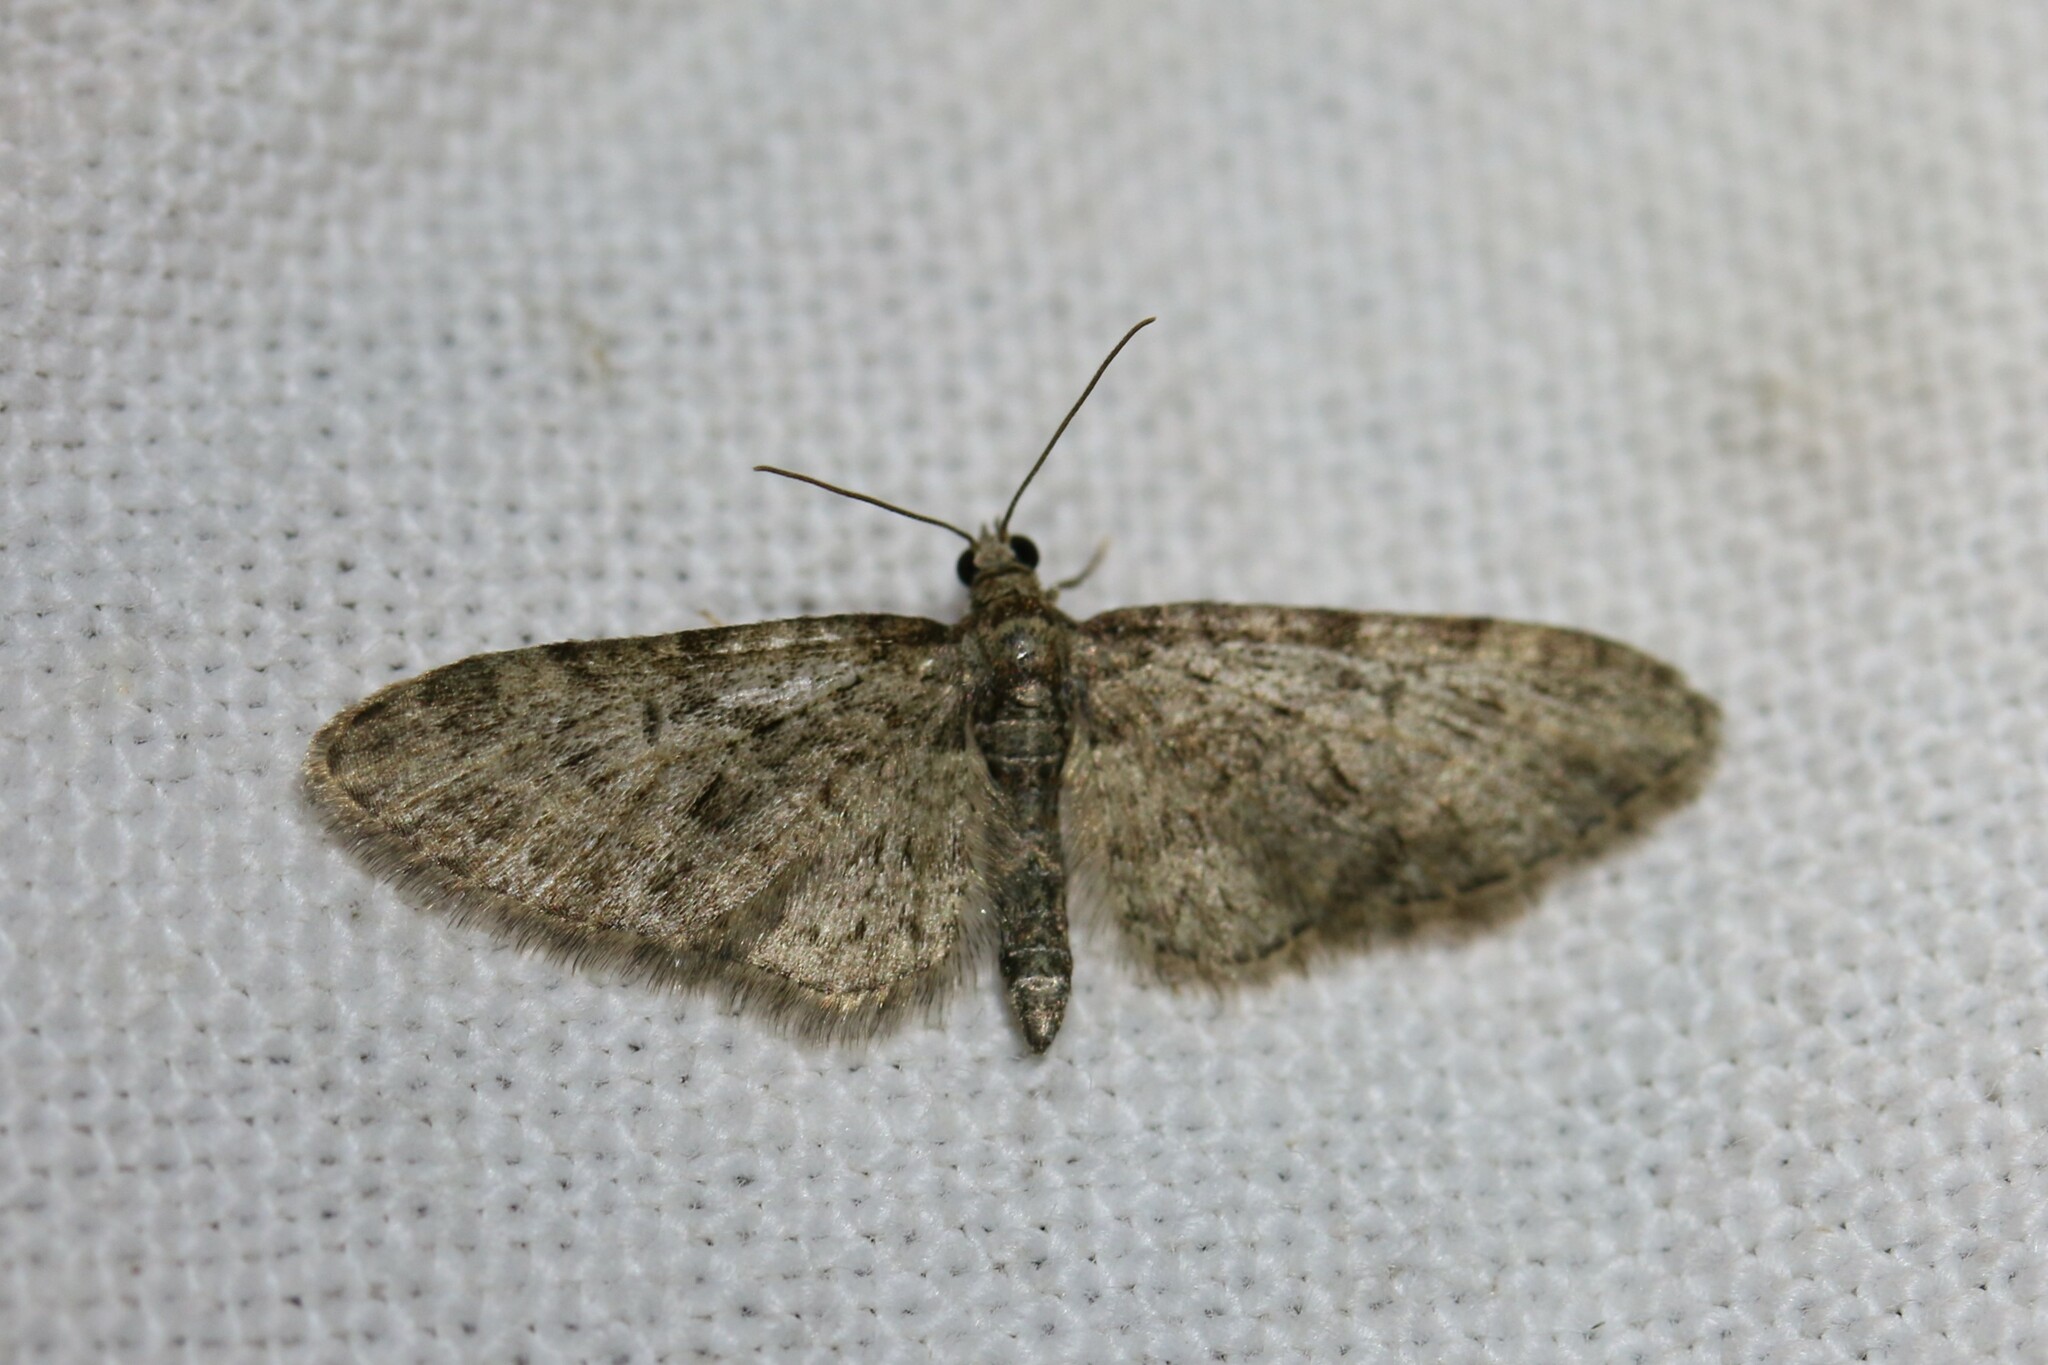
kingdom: Animalia
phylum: Arthropoda
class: Insecta
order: Lepidoptera
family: Geometridae
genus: Eupithecia
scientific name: Eupithecia abbreviata
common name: Brindled pug
